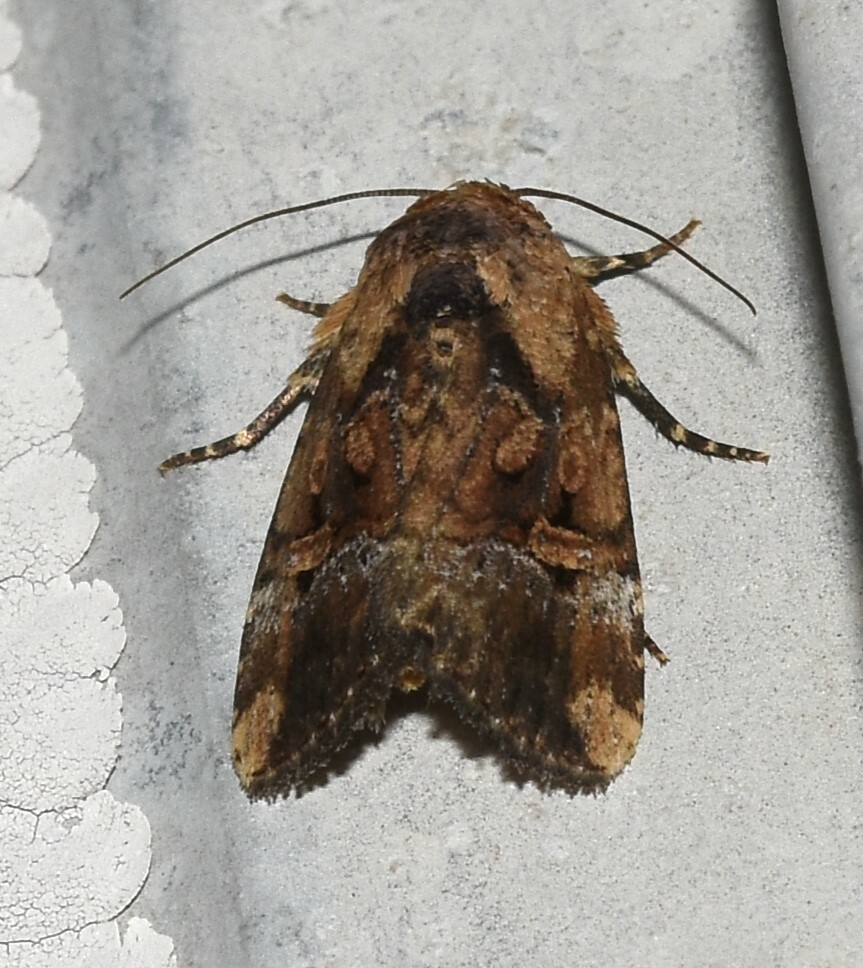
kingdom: Animalia
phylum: Arthropoda
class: Insecta
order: Lepidoptera
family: Noctuidae
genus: Elaphria
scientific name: Elaphria chalcedonia
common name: Chalcedony midget
